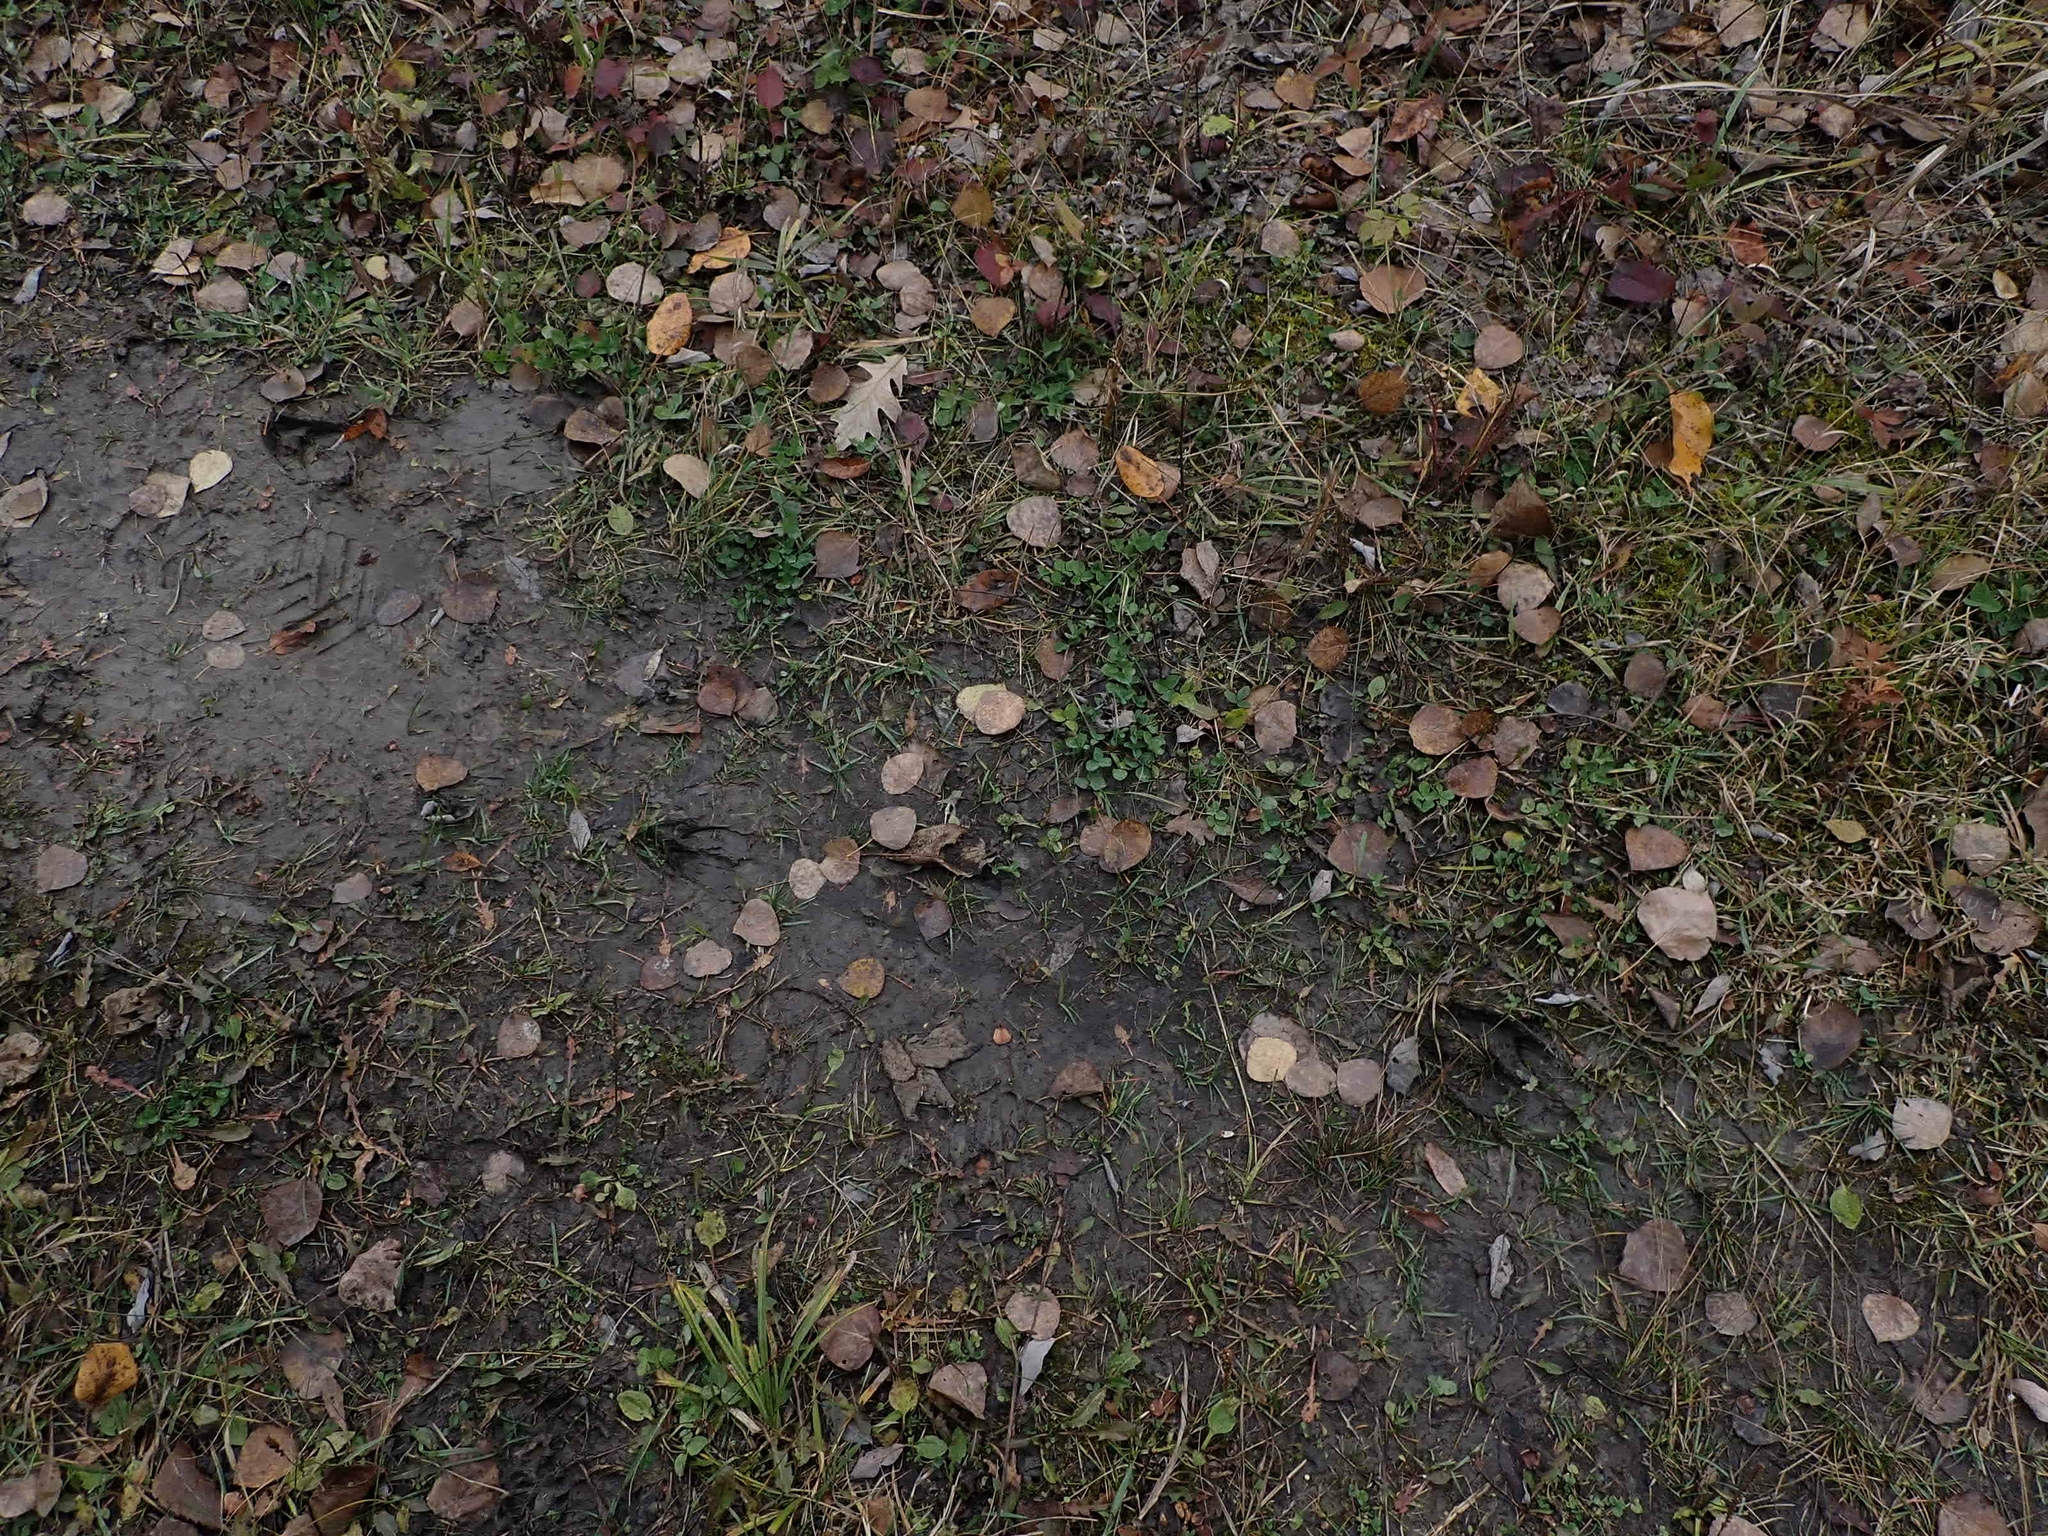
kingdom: Animalia
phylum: Chordata
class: Mammalia
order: Artiodactyla
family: Cervidae
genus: Odocoileus
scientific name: Odocoileus virginianus
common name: White-tailed deer
